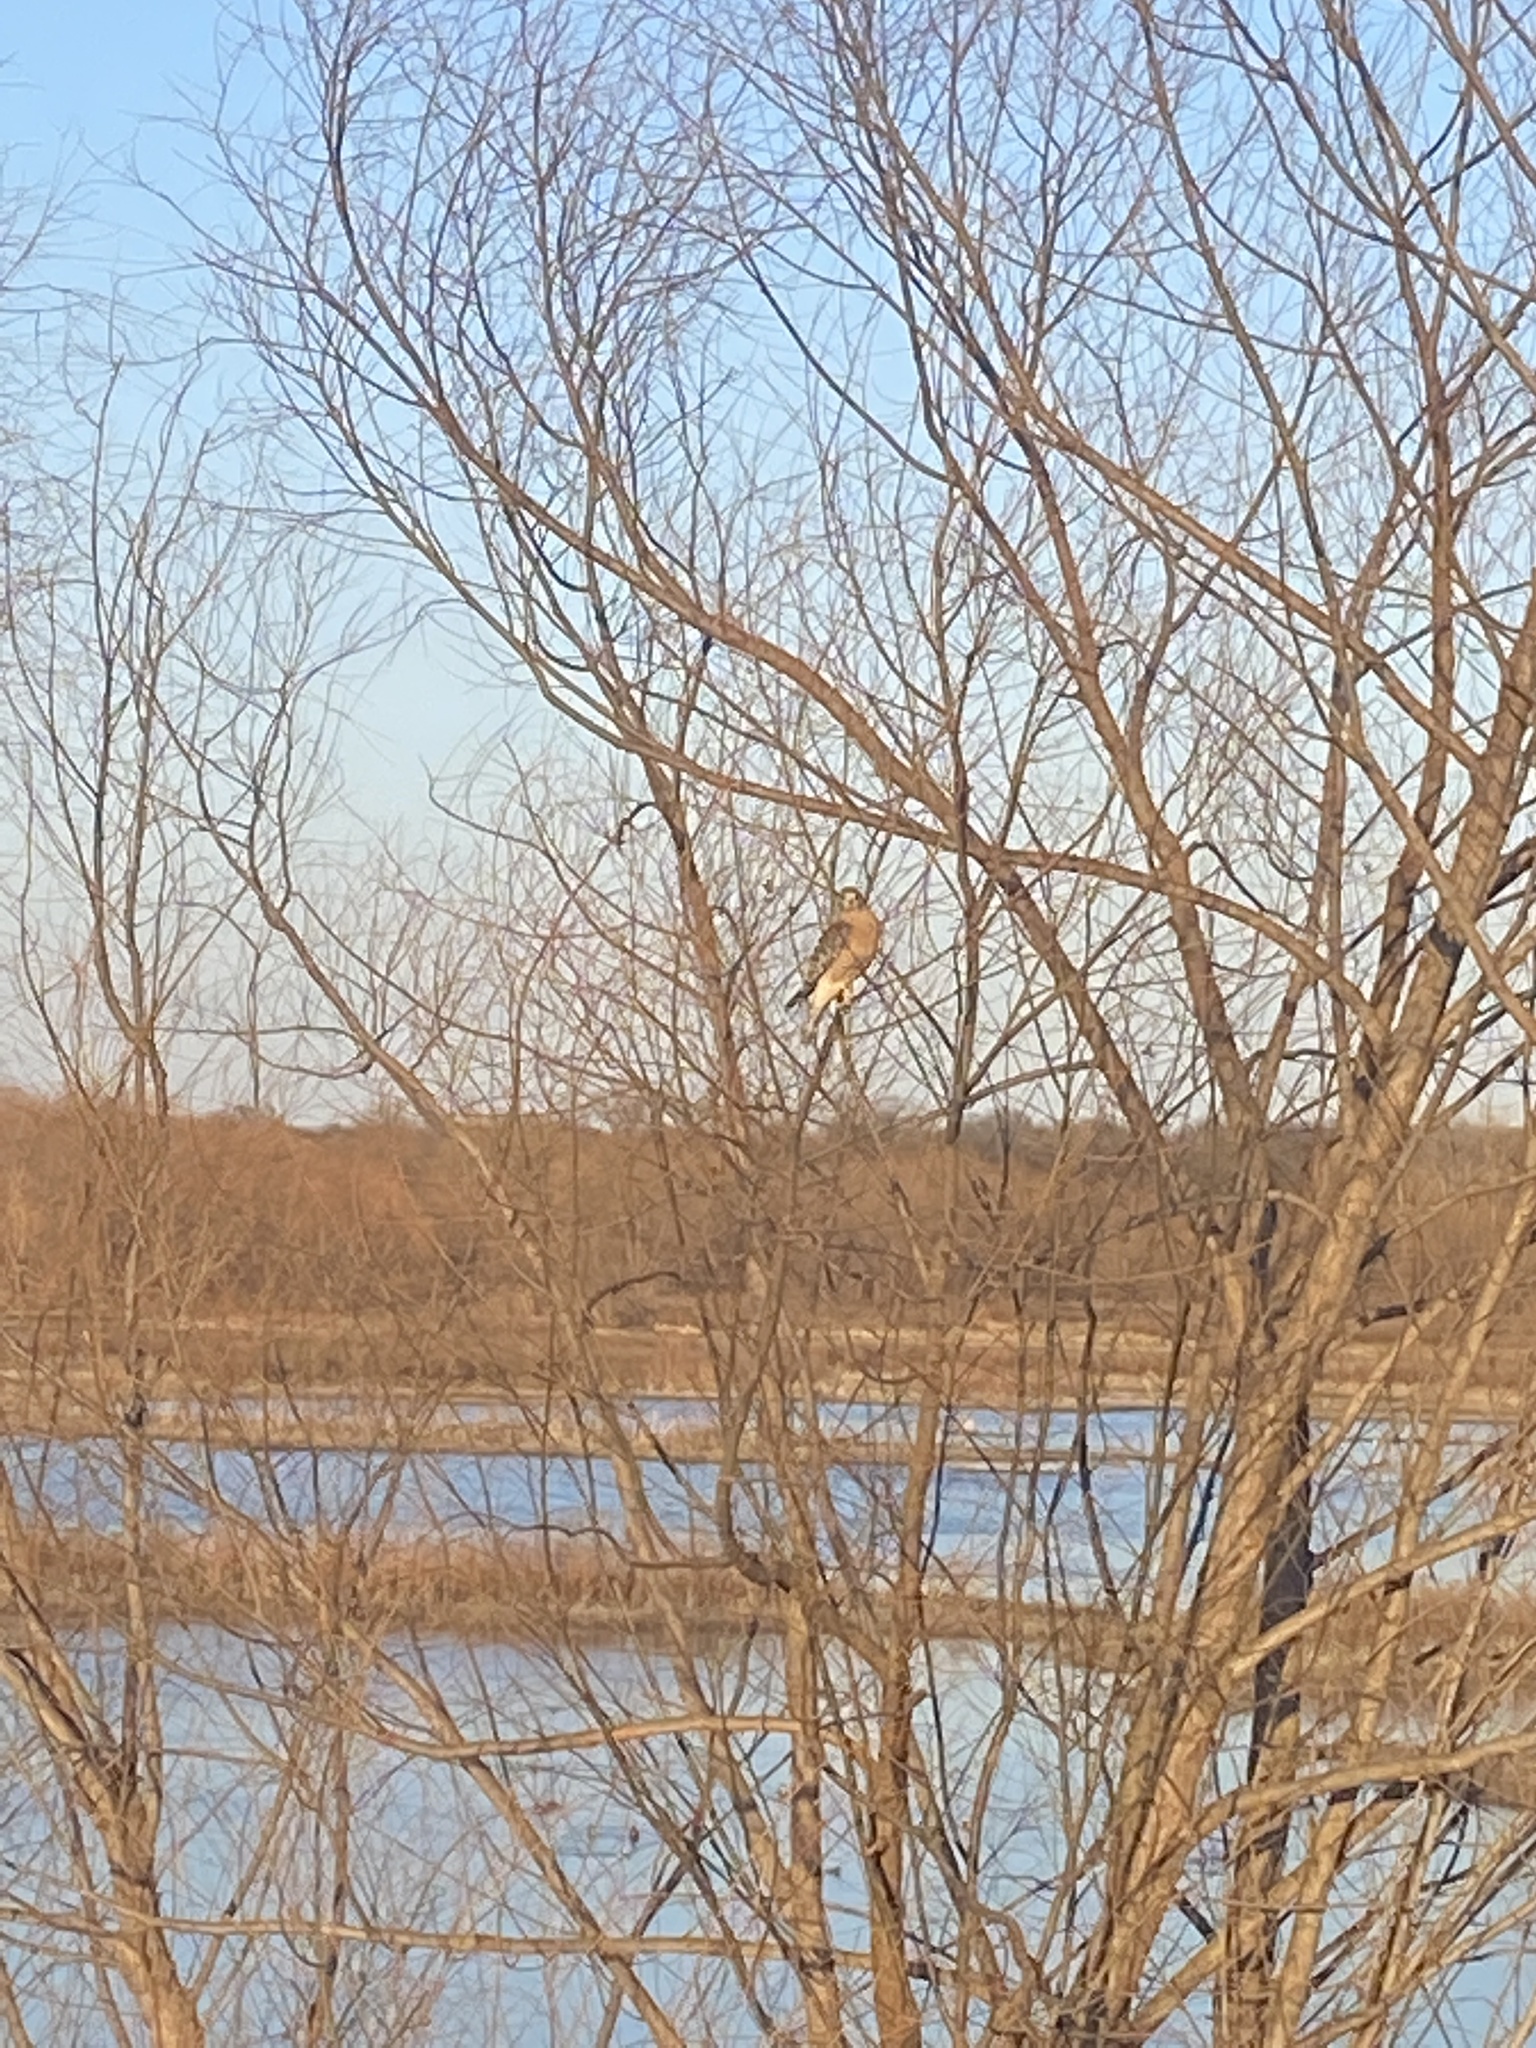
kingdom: Animalia
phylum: Chordata
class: Aves
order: Accipitriformes
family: Accipitridae
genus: Buteo
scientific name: Buteo lineatus
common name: Red-shouldered hawk
